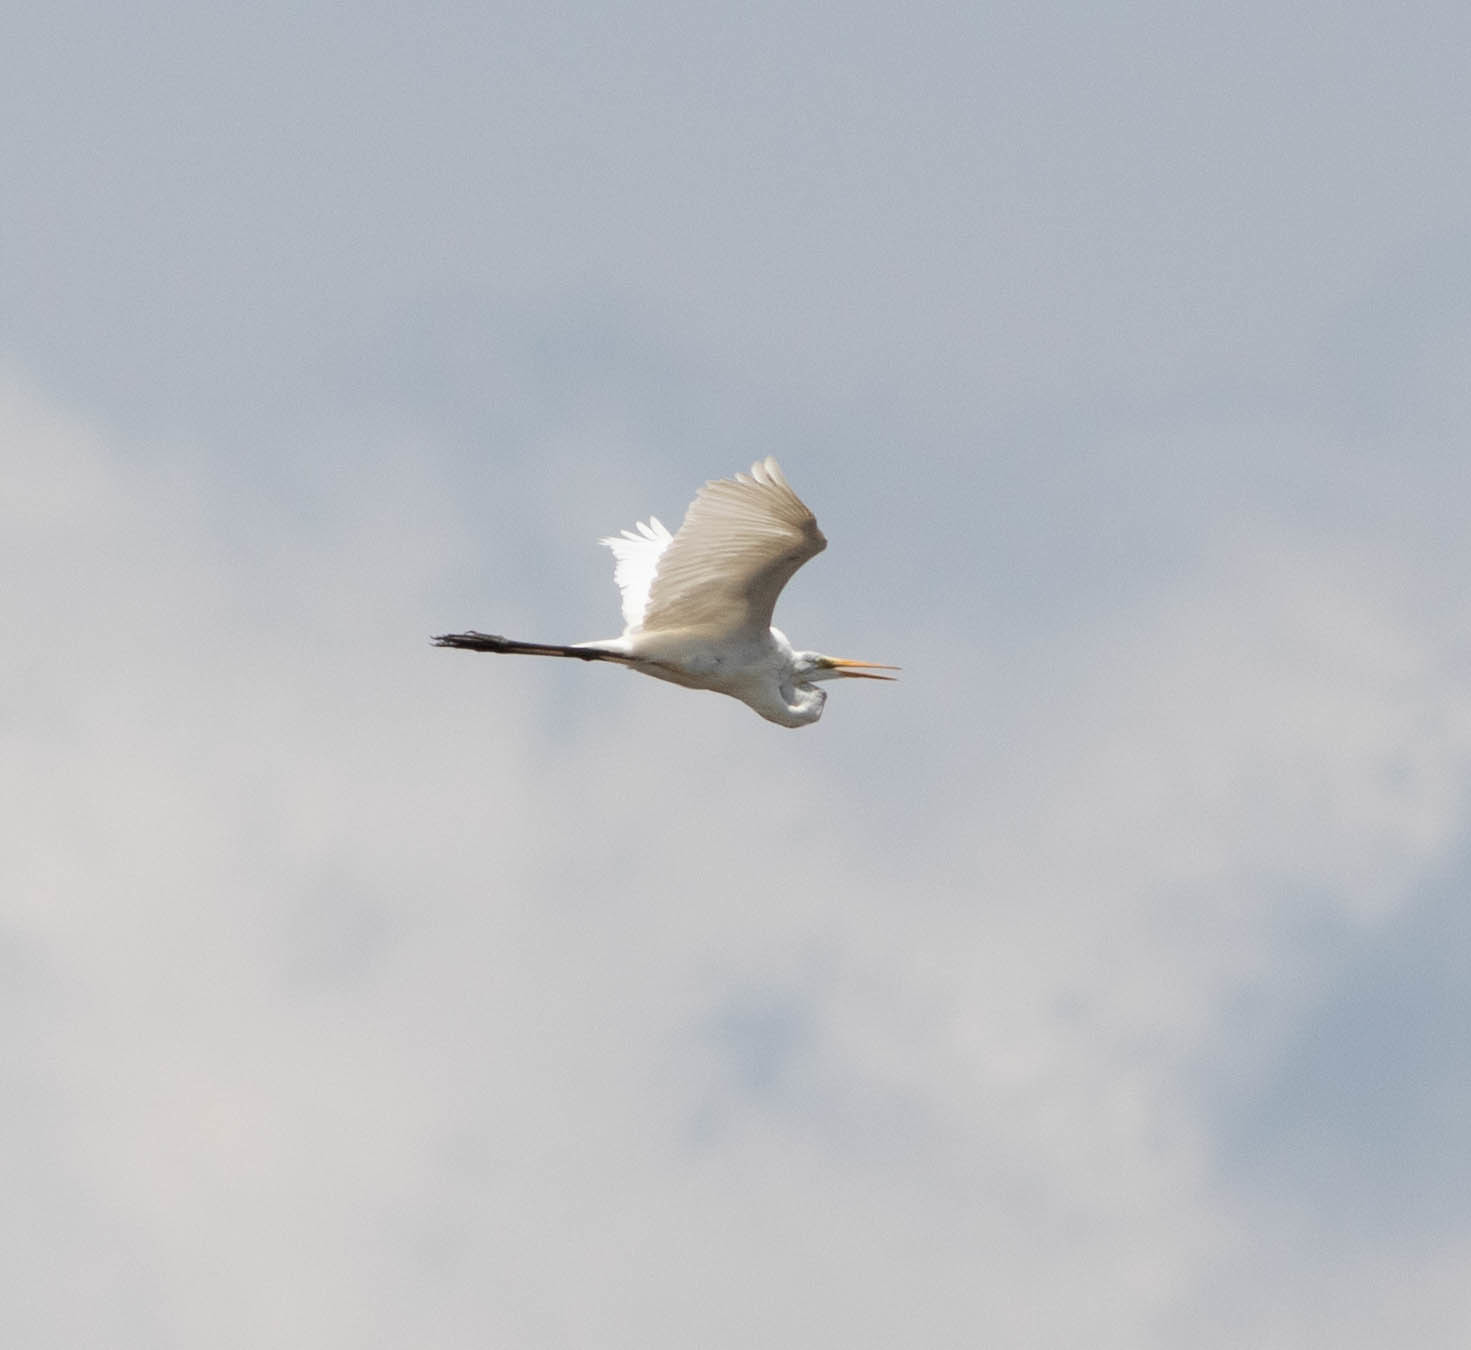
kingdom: Animalia
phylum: Chordata
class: Aves
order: Pelecaniformes
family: Ardeidae
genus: Ardea
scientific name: Ardea alba
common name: Great egret
